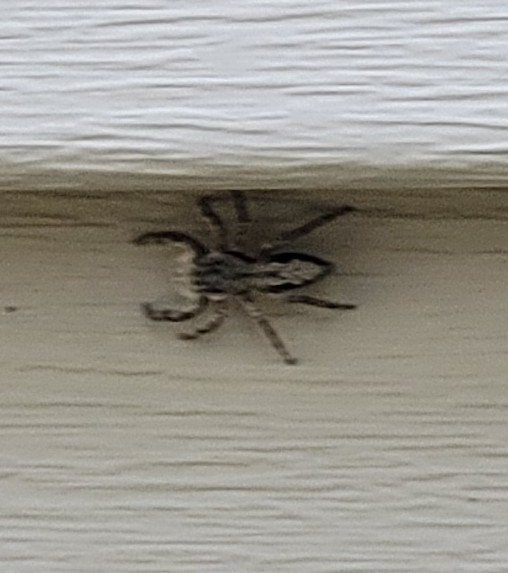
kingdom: Animalia
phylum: Arthropoda
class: Arachnida
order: Araneae
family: Salticidae
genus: Platycryptus
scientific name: Platycryptus undatus
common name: Tan jumping spider
